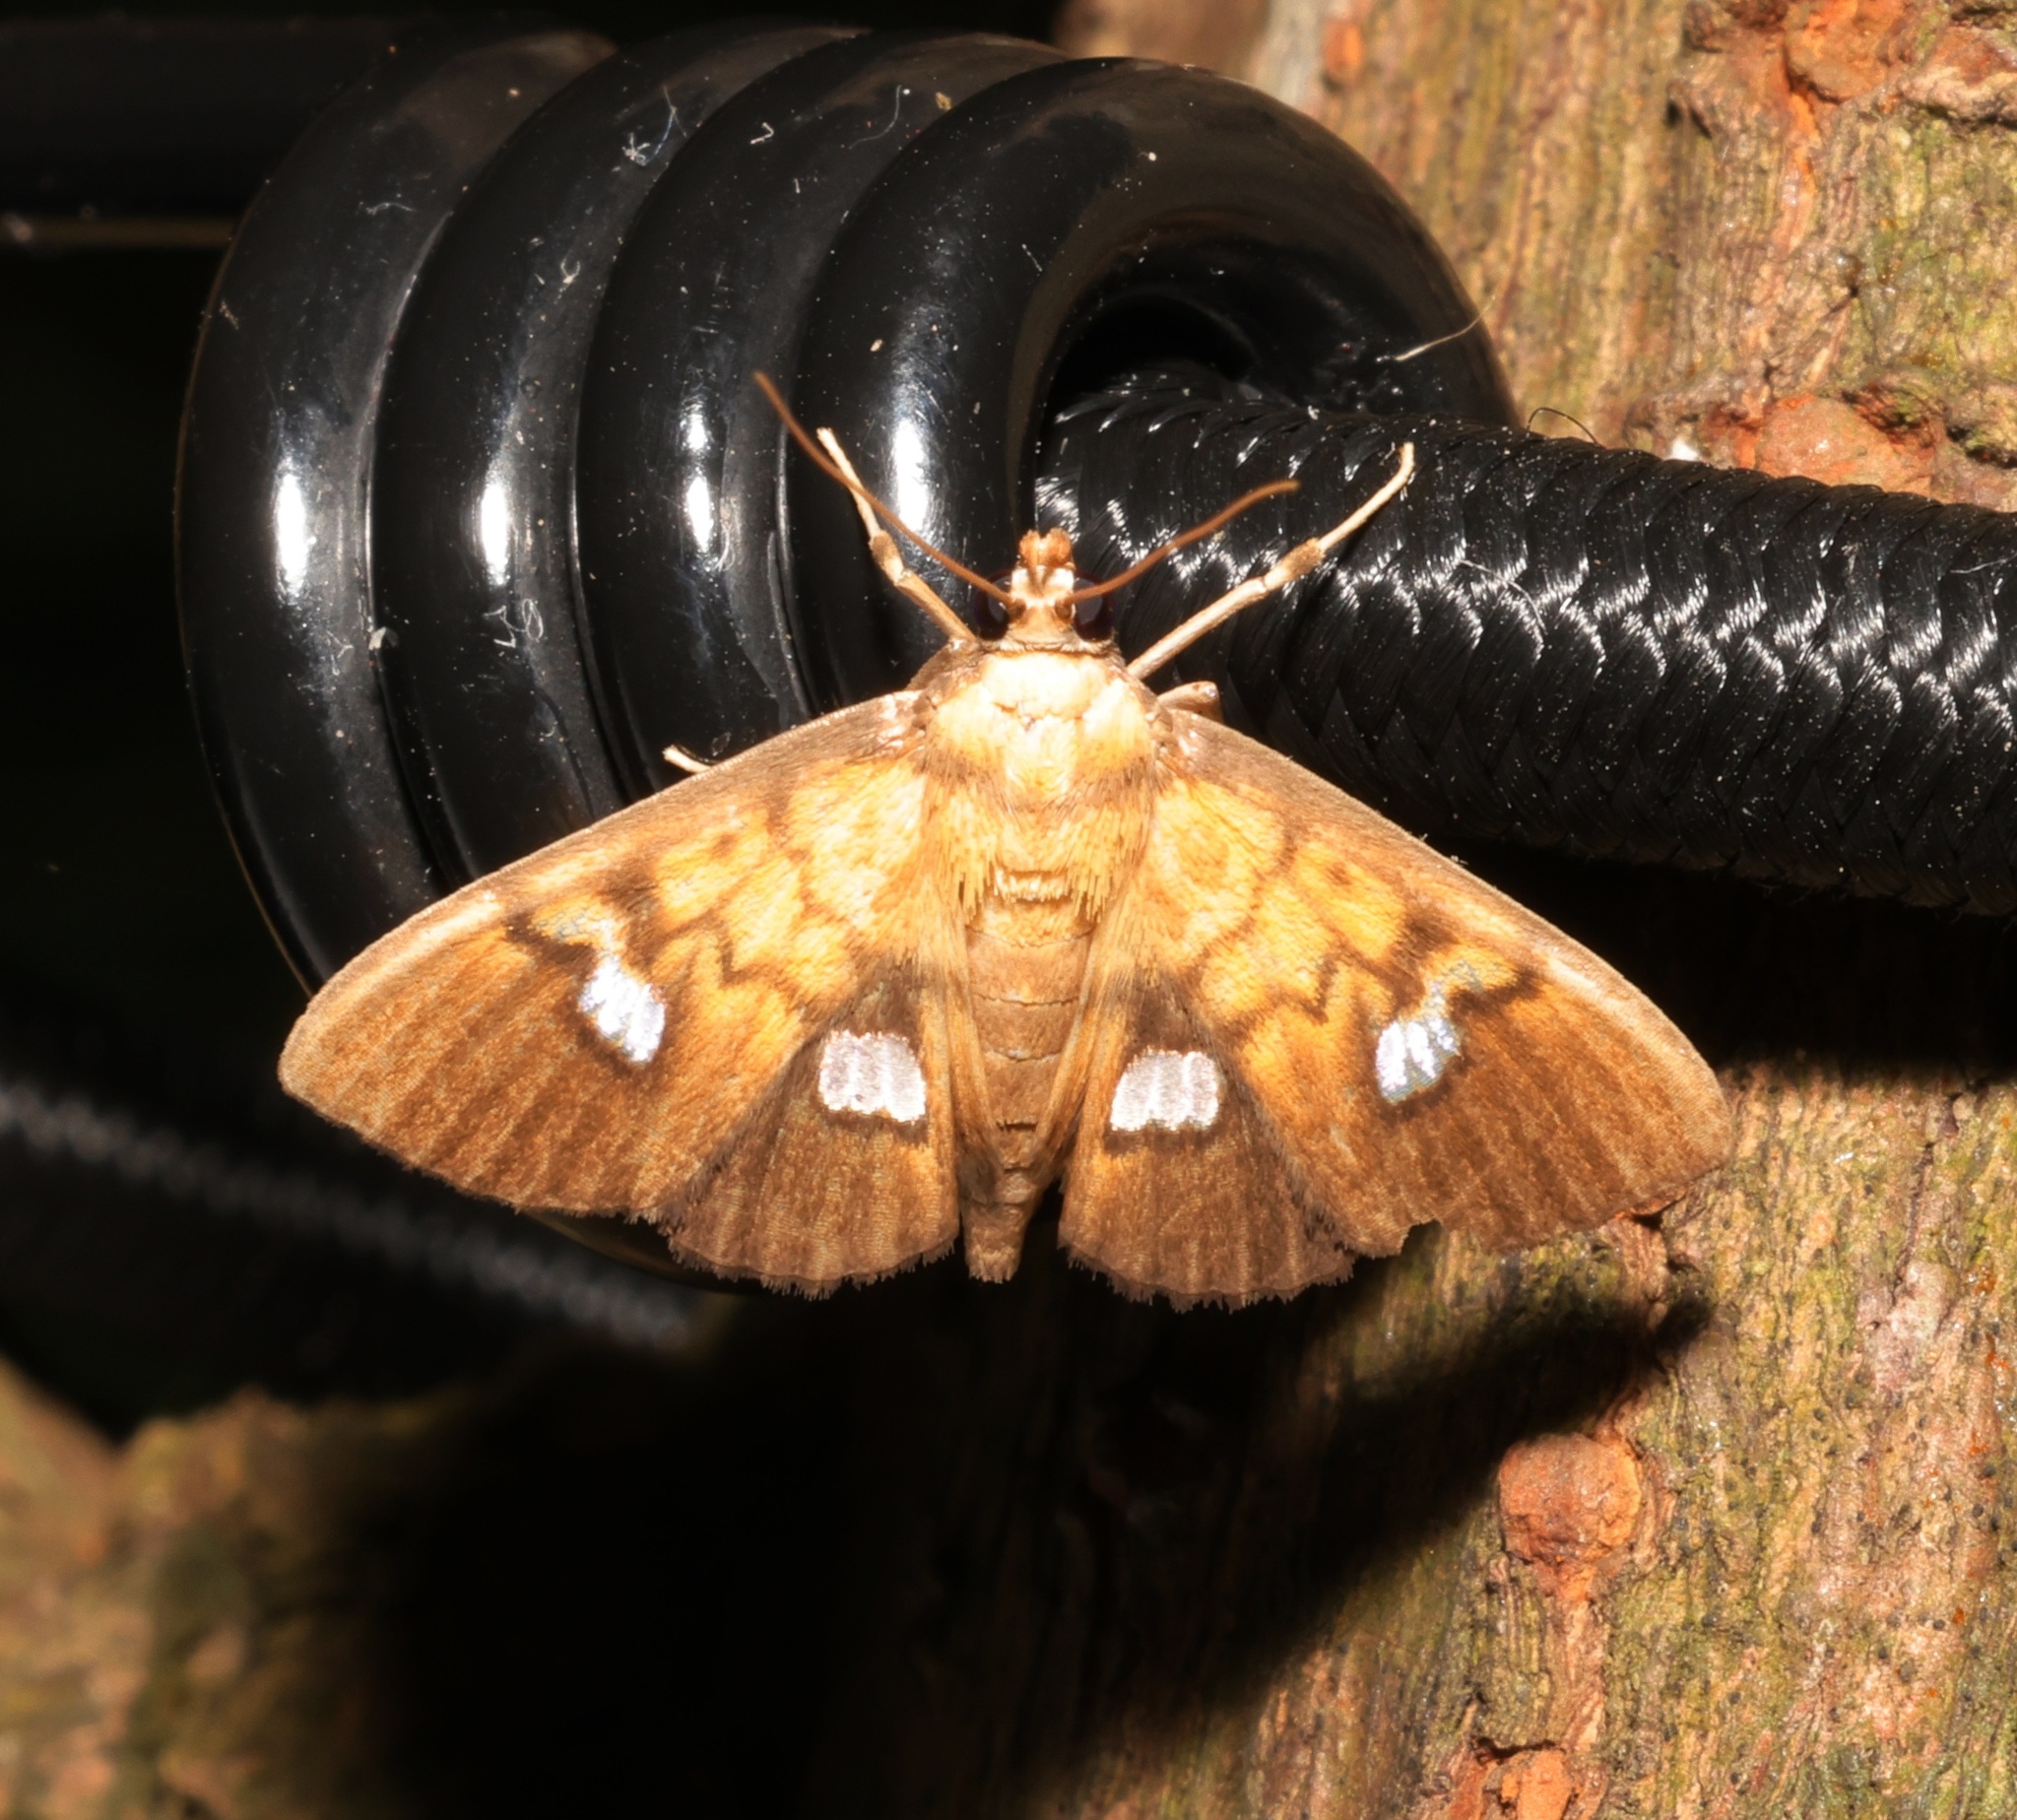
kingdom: Animalia
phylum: Arthropoda
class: Insecta
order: Lepidoptera
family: Crambidae
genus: Nosophora
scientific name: Nosophora semitritalis
